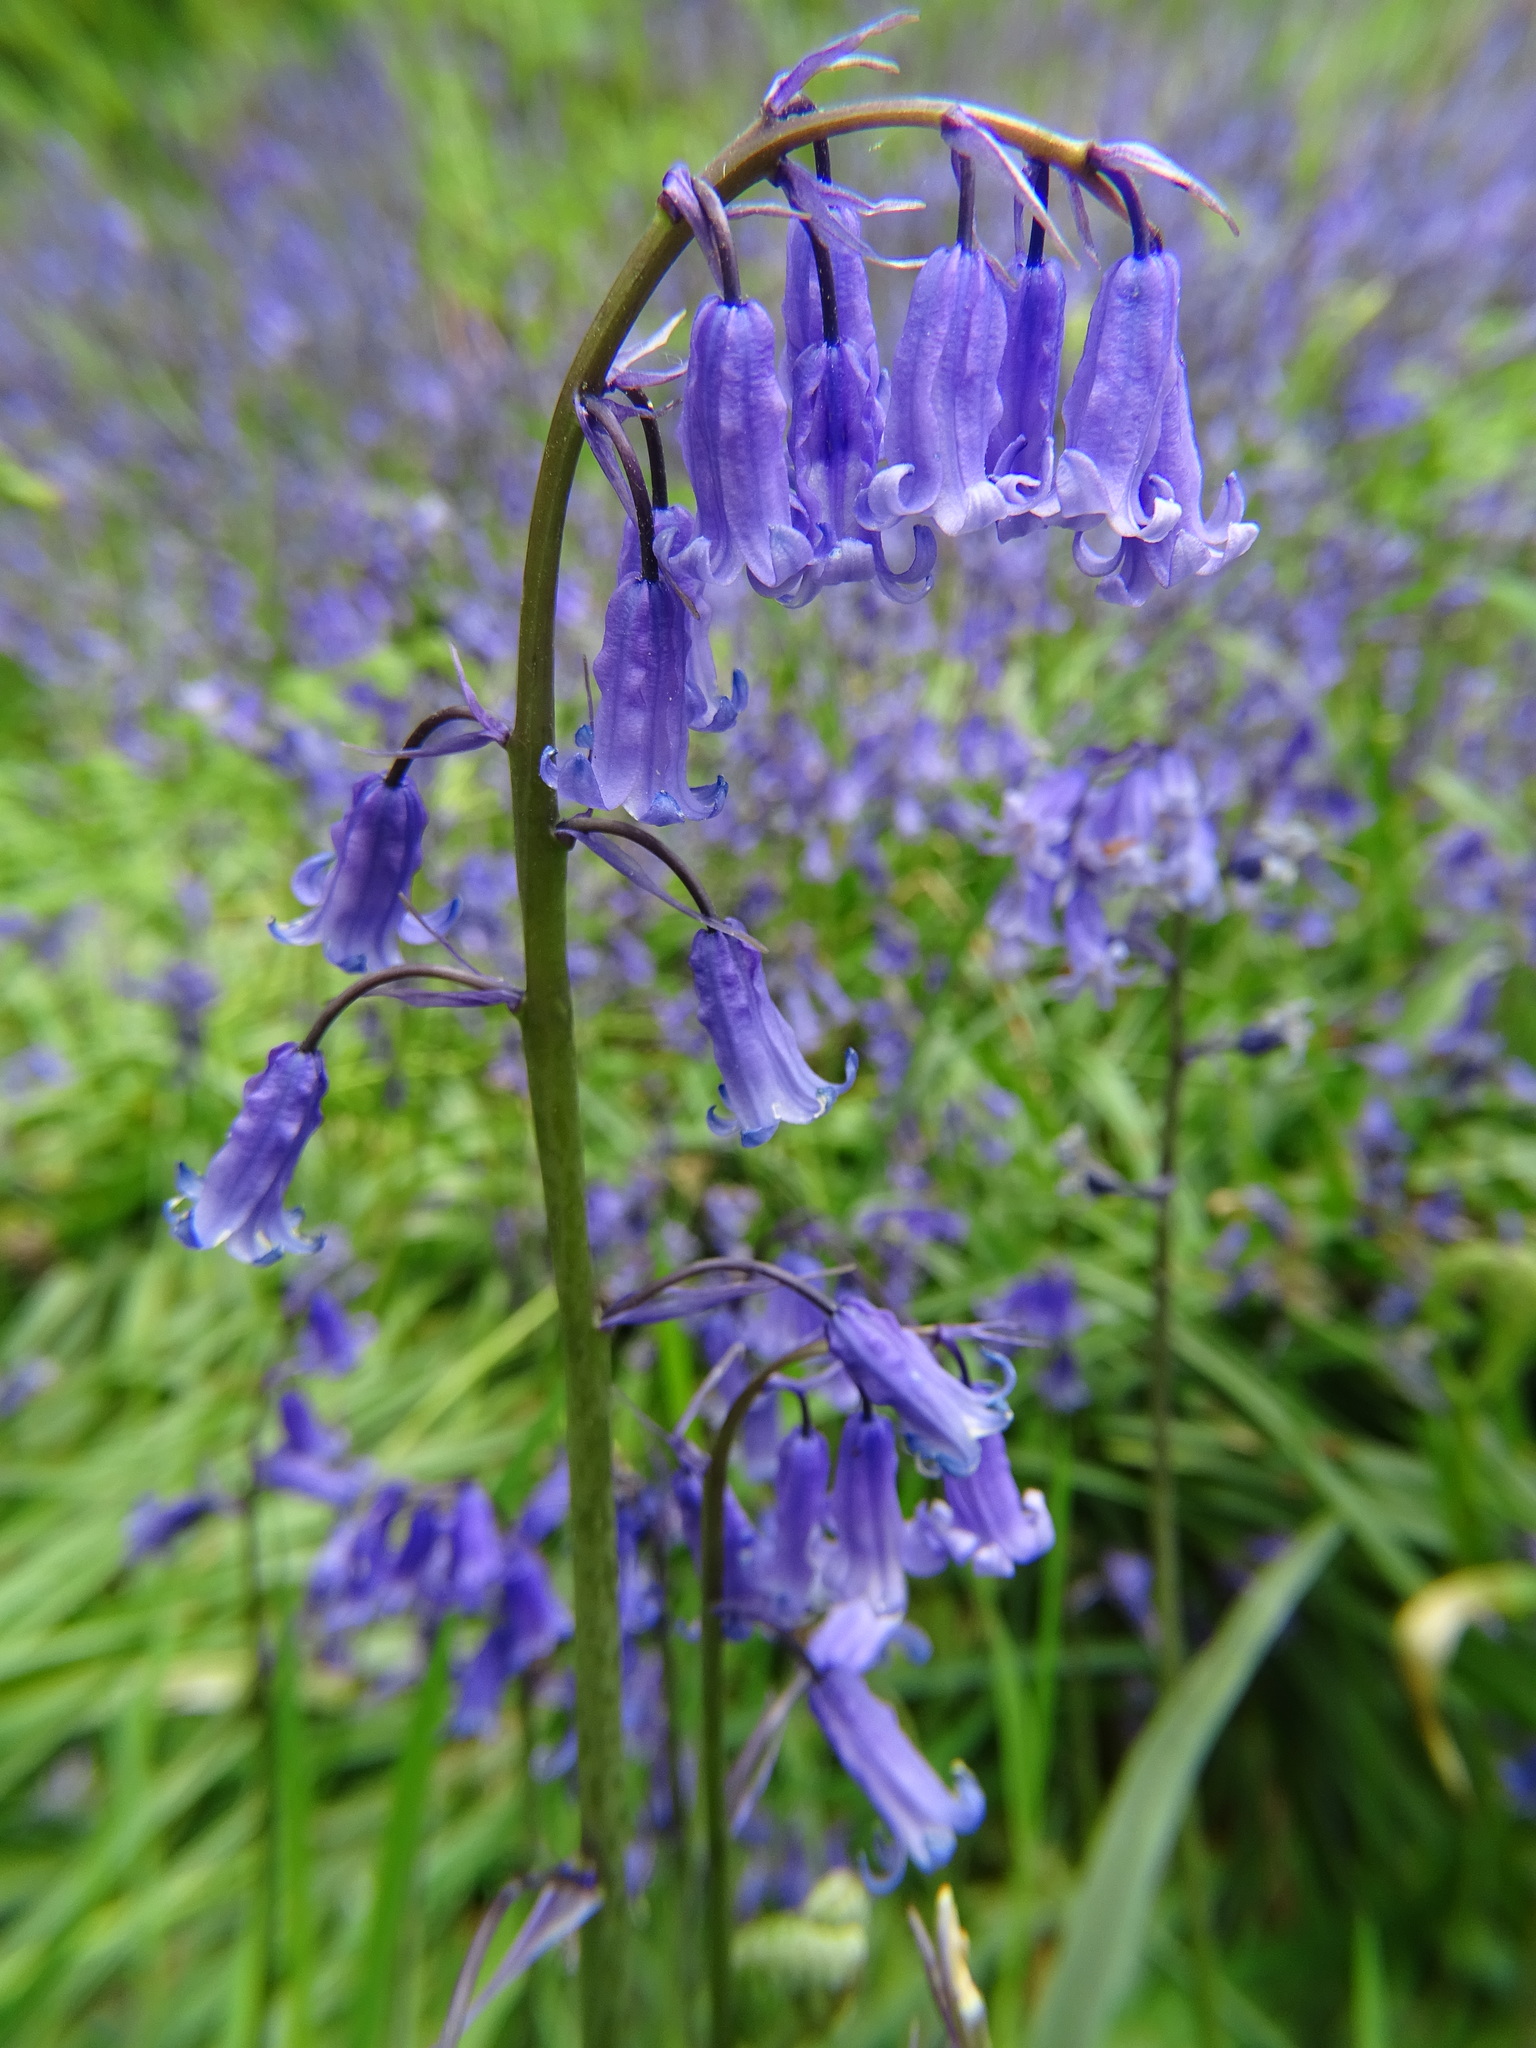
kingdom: Plantae
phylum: Tracheophyta
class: Liliopsida
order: Asparagales
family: Asparagaceae
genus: Hyacinthoides
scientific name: Hyacinthoides non-scripta
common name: Bluebell
